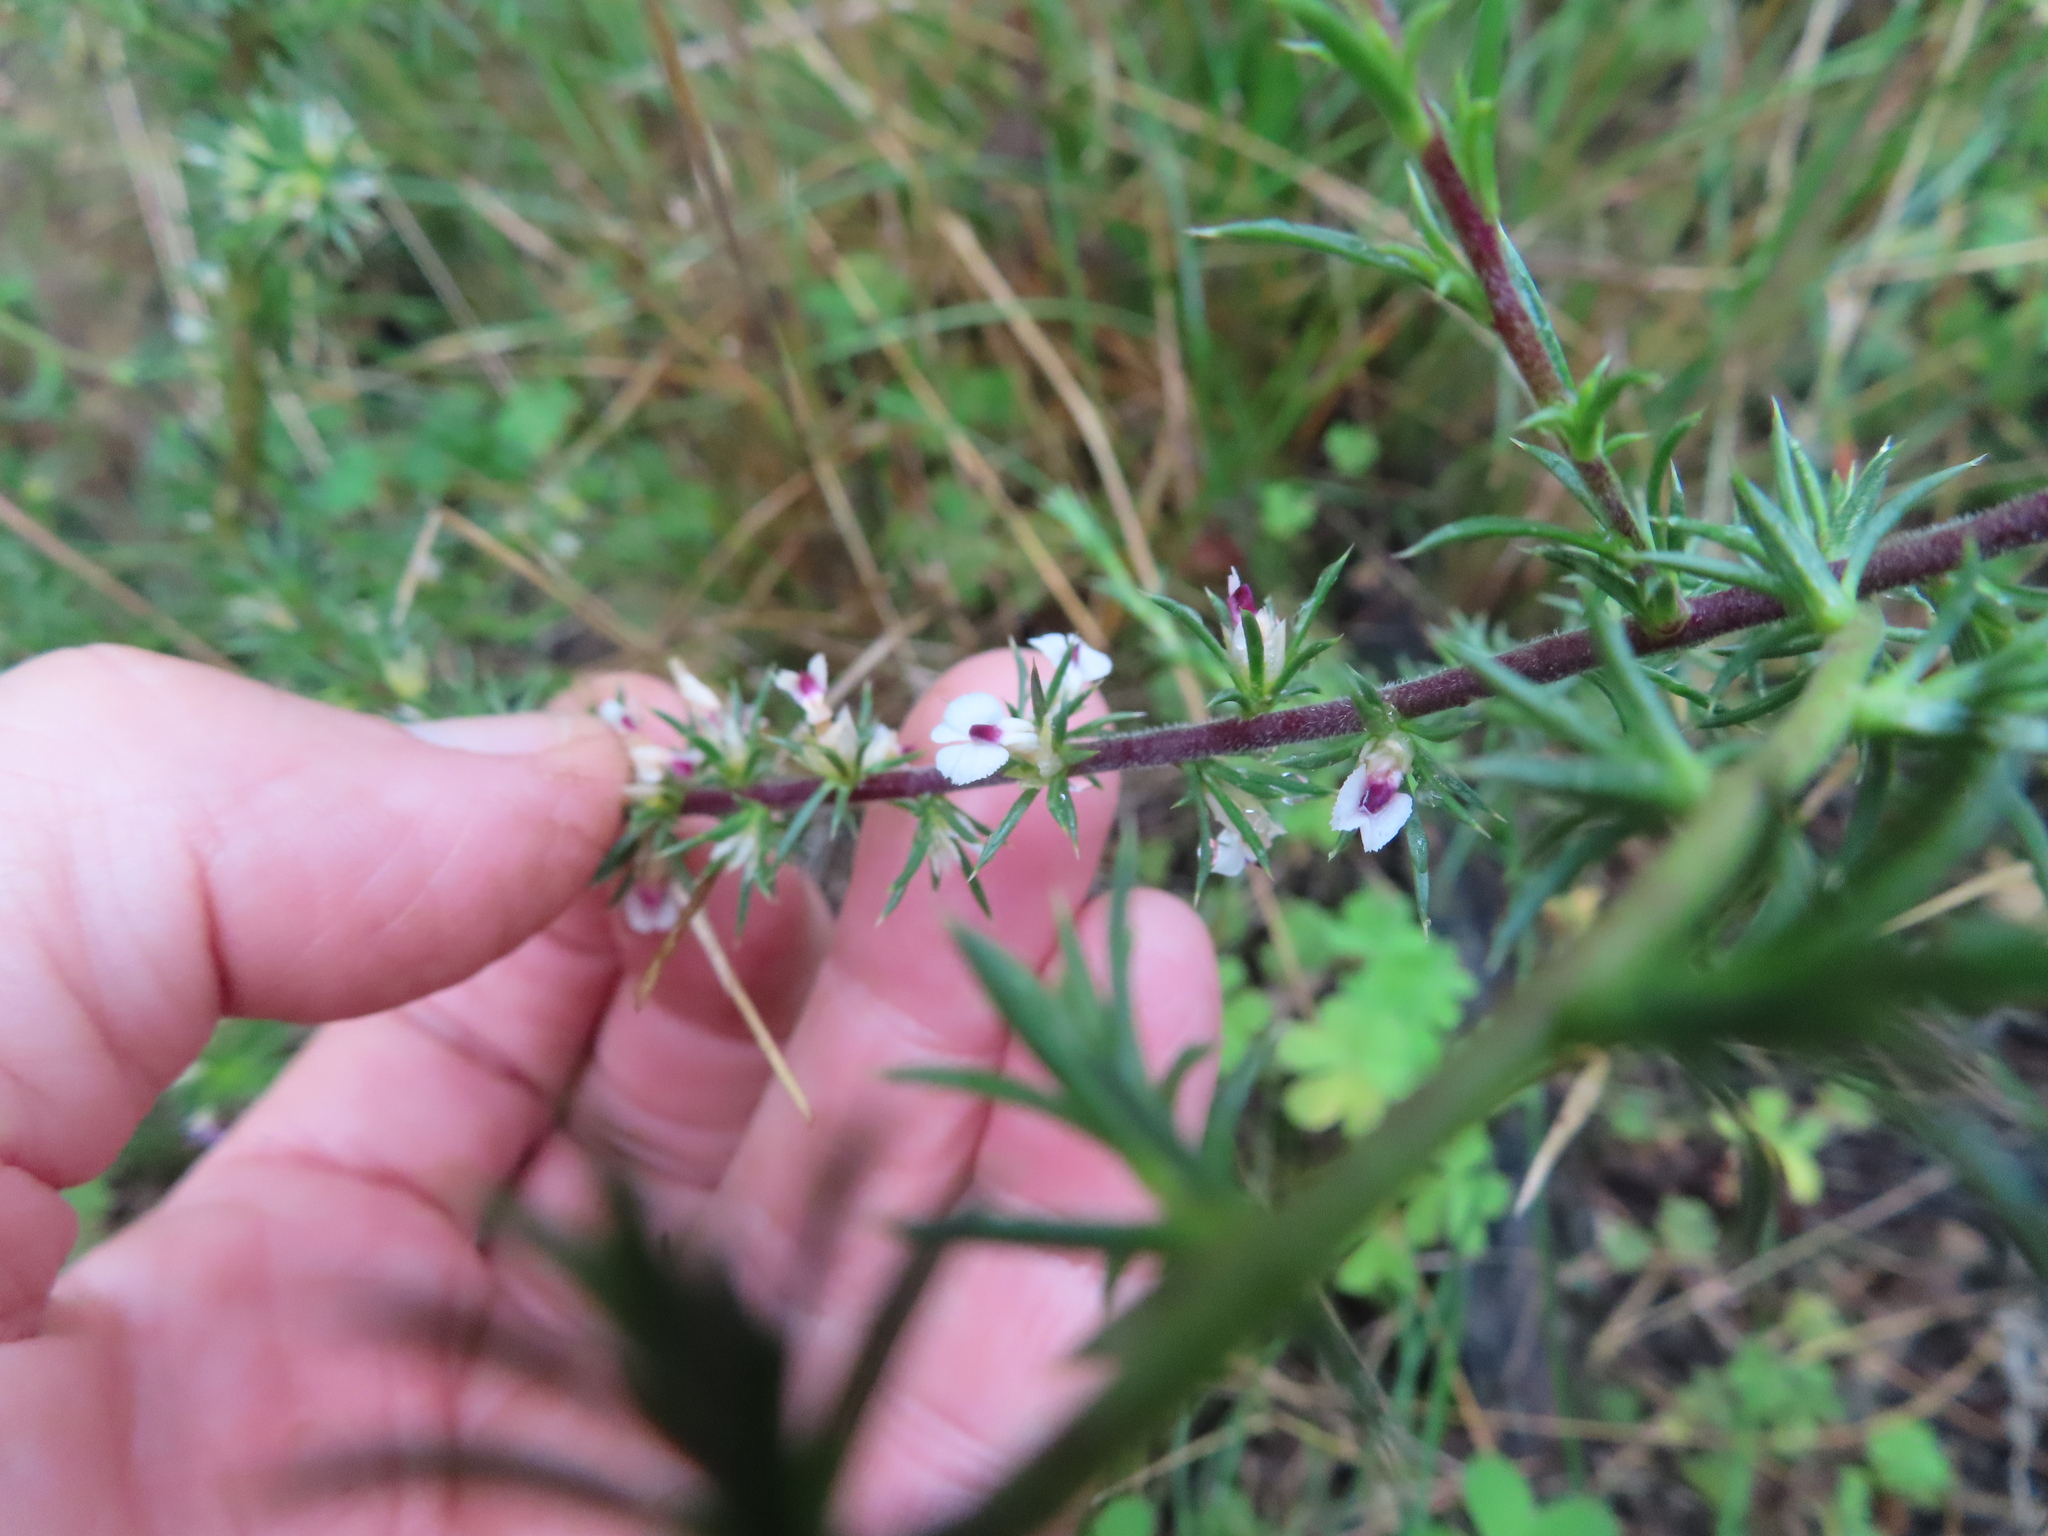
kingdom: Plantae
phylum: Tracheophyta
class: Magnoliopsida
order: Fabales
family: Polygalaceae
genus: Muraltia
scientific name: Muraltia ericifolia
